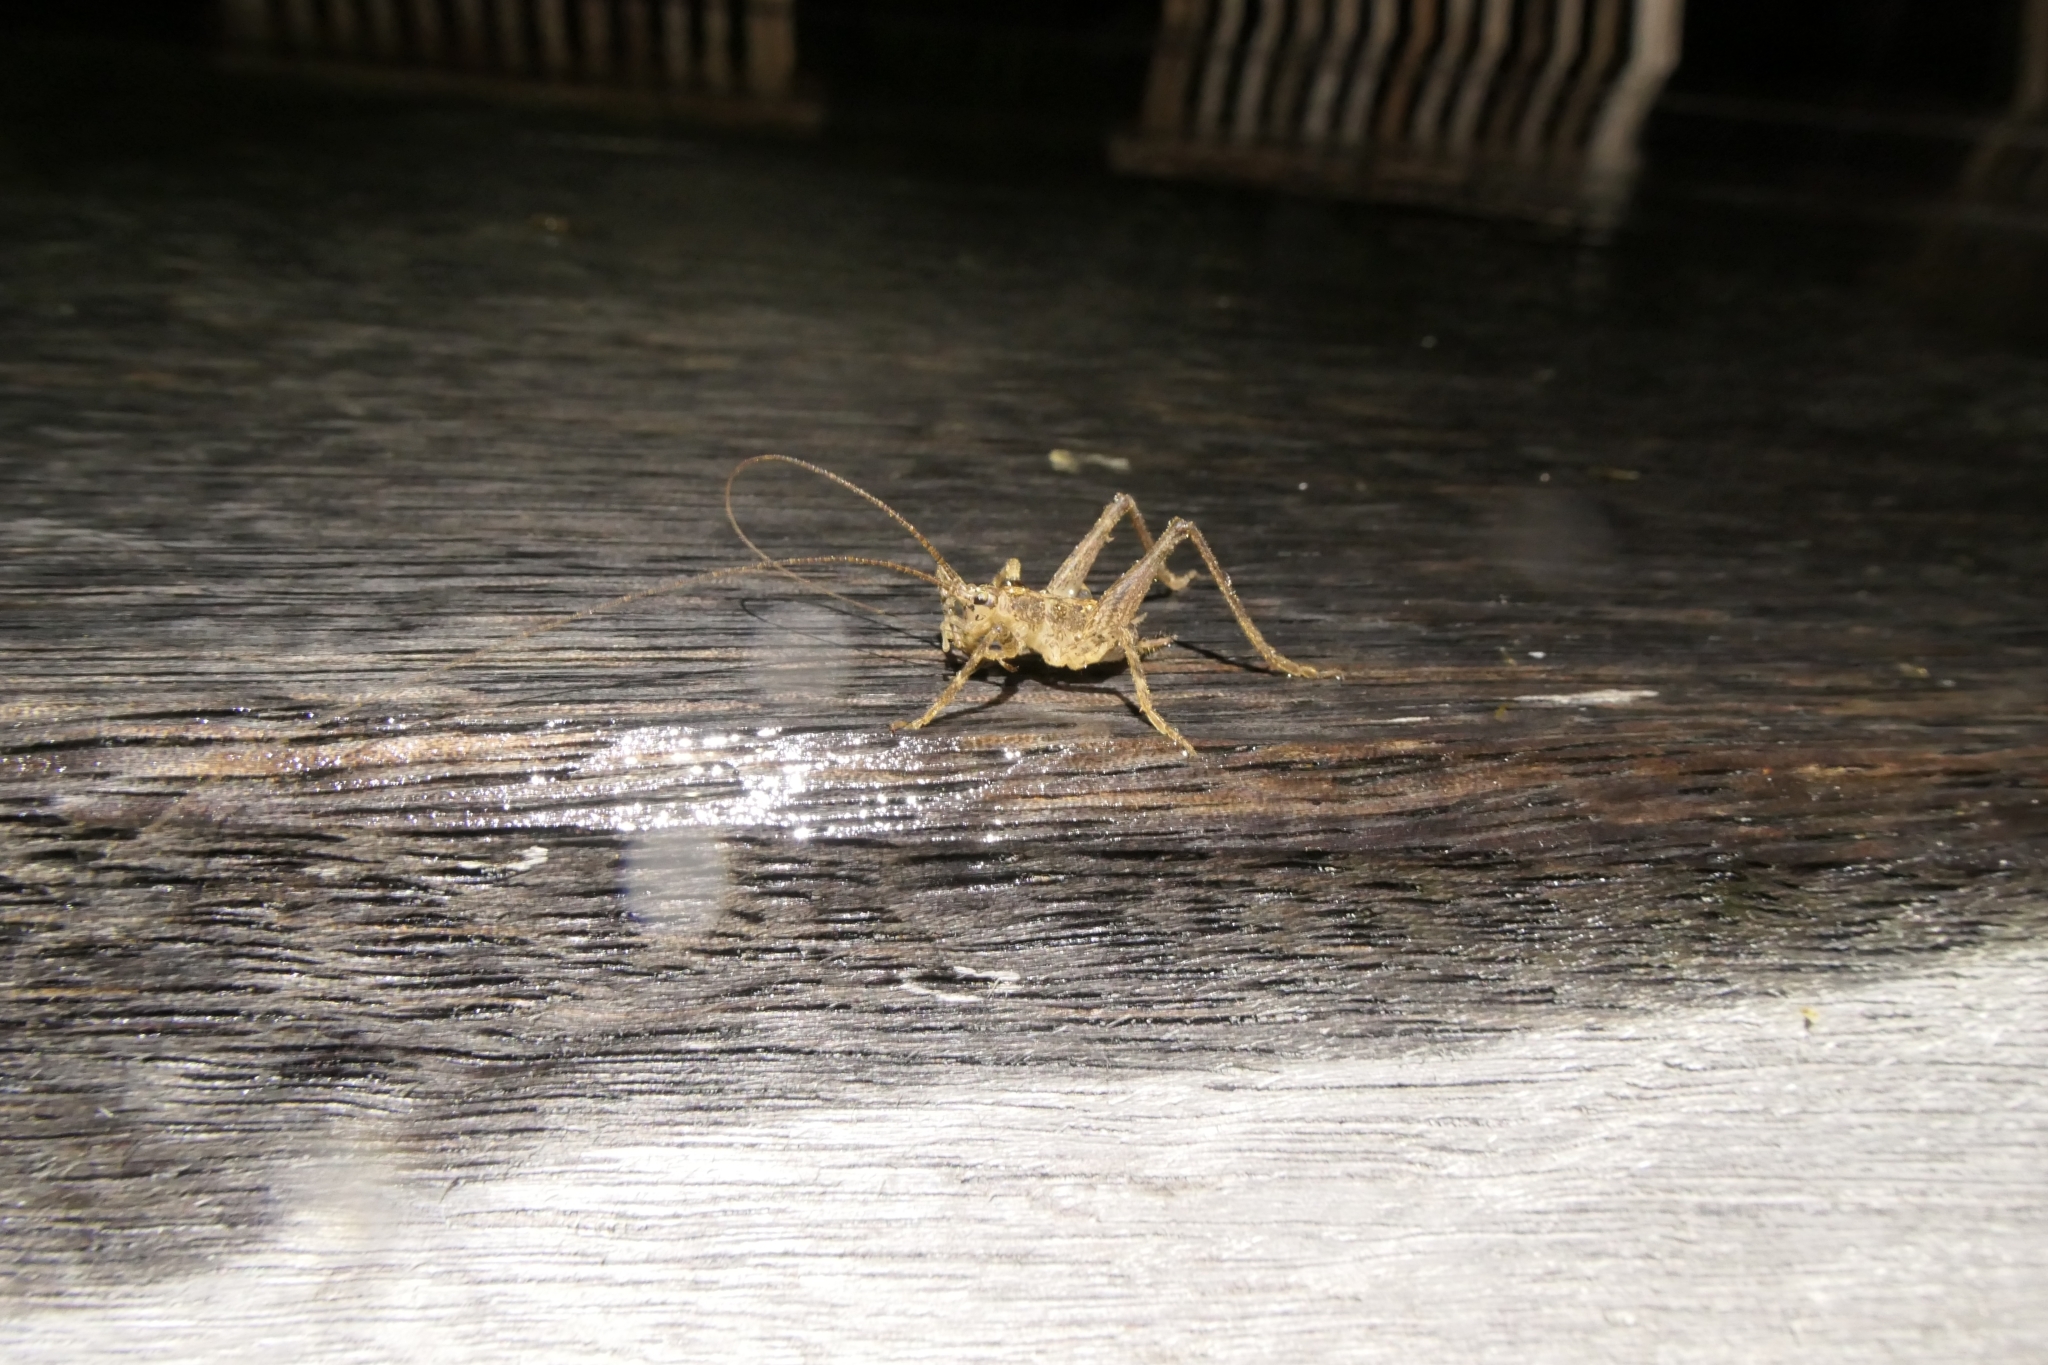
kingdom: Animalia
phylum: Arthropoda
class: Insecta
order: Orthoptera
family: Rhaphidophoridae
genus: Isoplectron
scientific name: Isoplectron armatum
